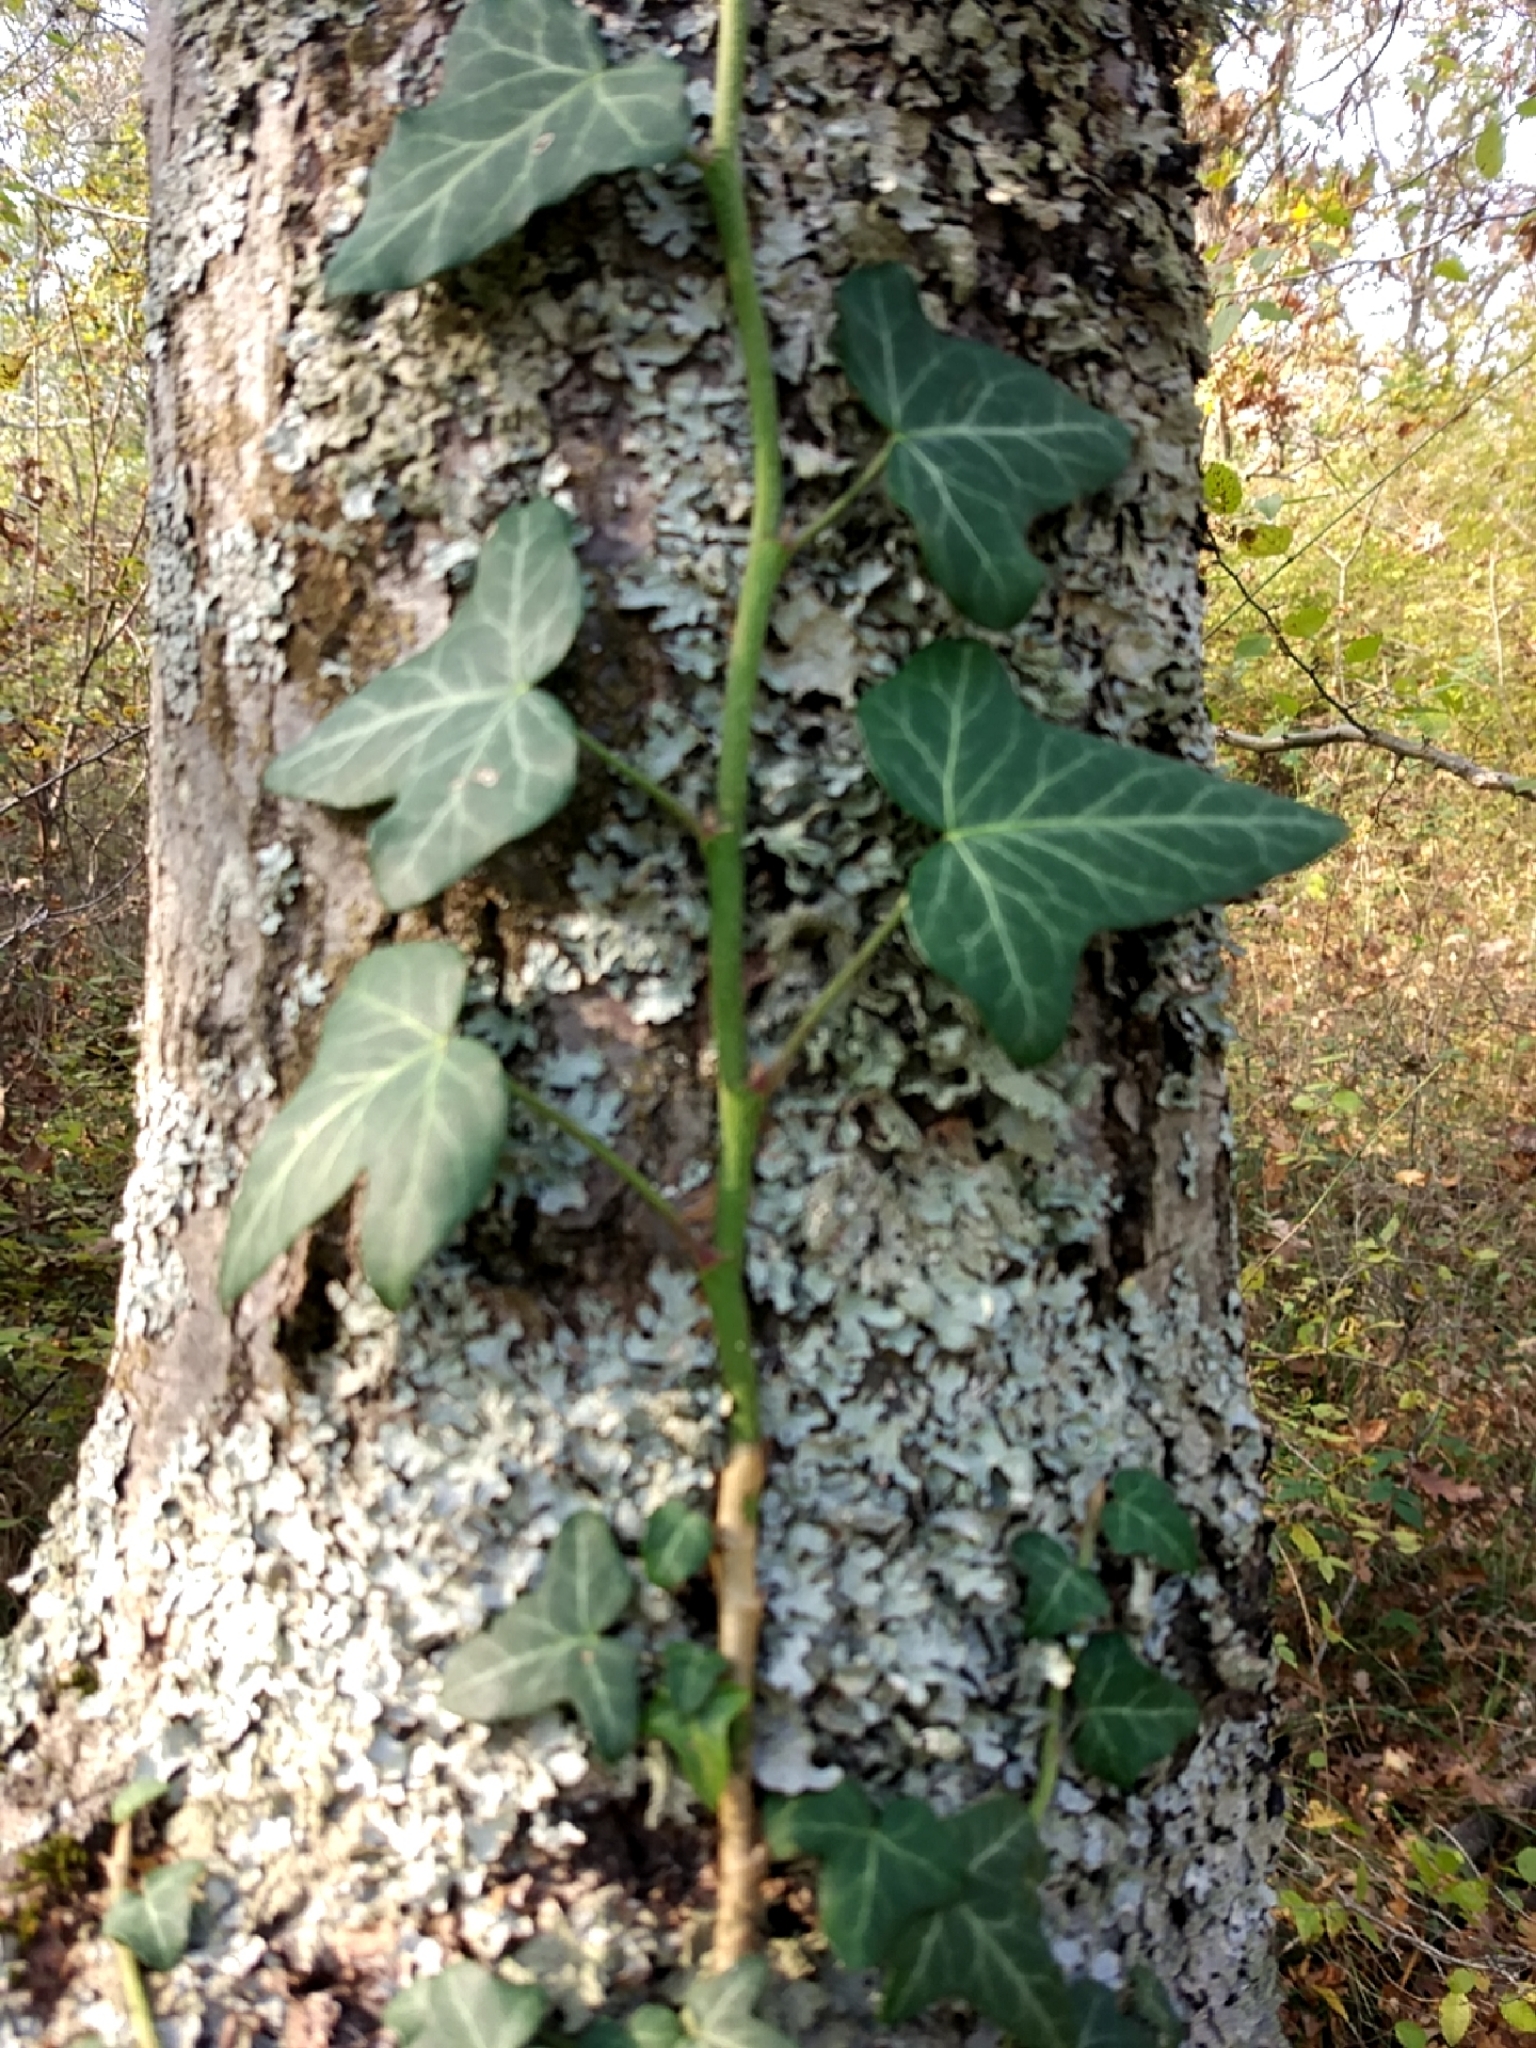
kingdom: Plantae
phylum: Tracheophyta
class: Magnoliopsida
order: Apiales
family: Araliaceae
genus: Hedera
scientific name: Hedera helix
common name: Ivy
